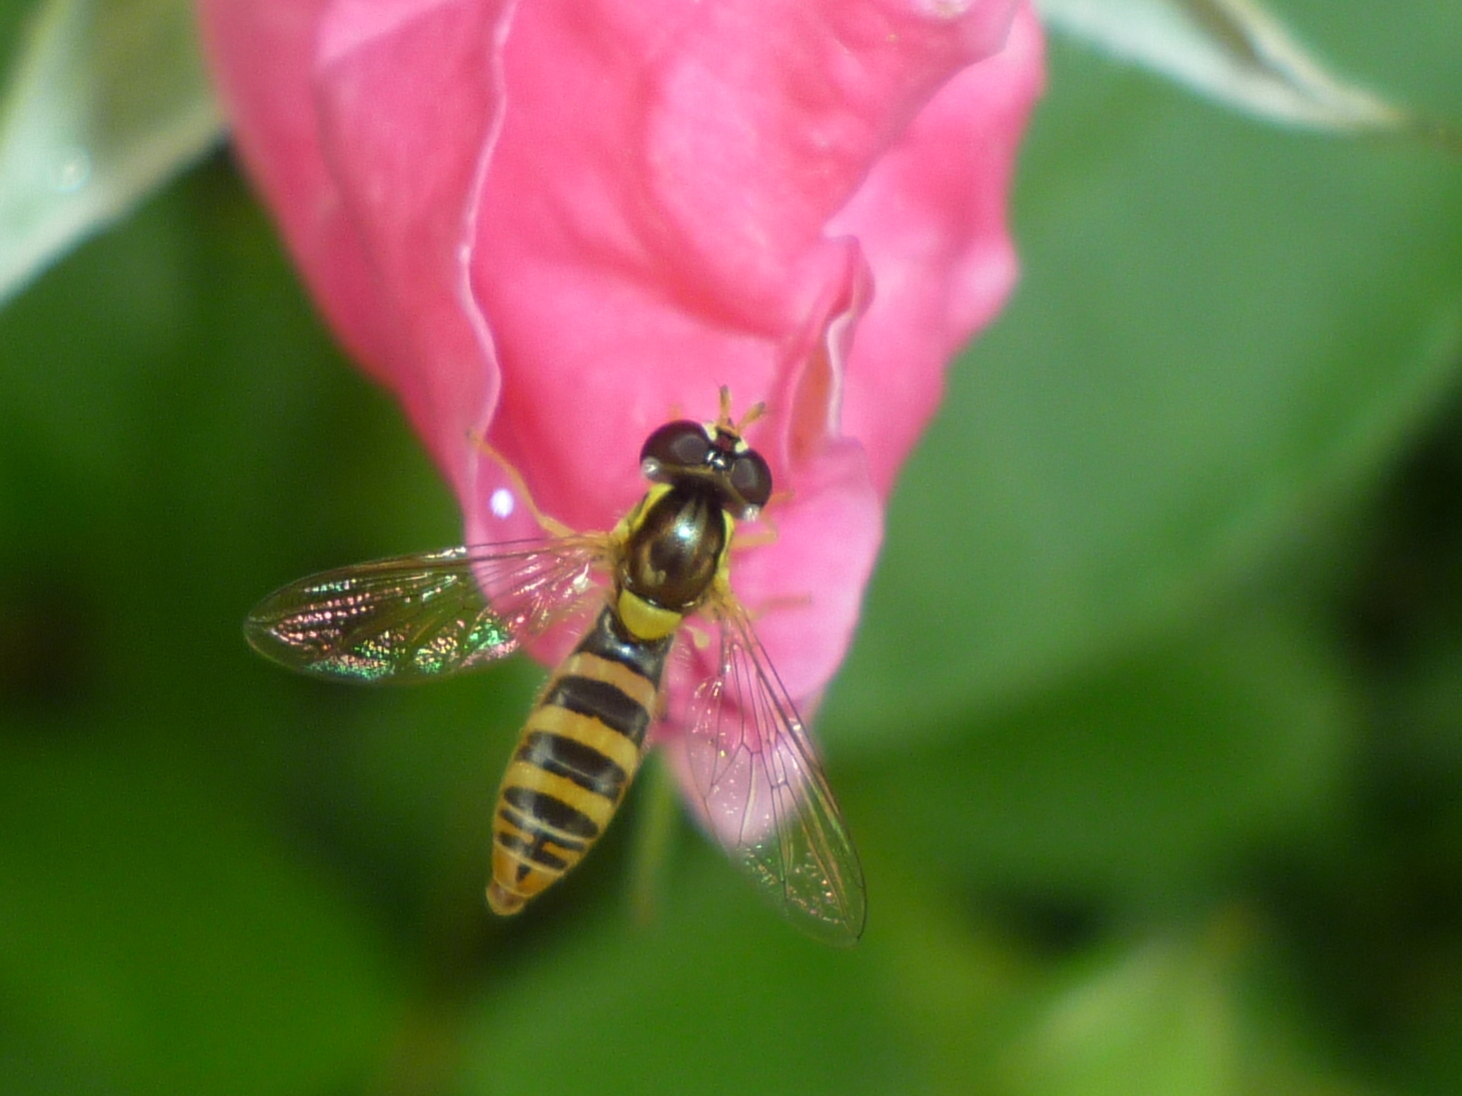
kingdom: Animalia
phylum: Arthropoda
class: Insecta
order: Diptera
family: Syrphidae
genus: Sphaerophoria
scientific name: Sphaerophoria
